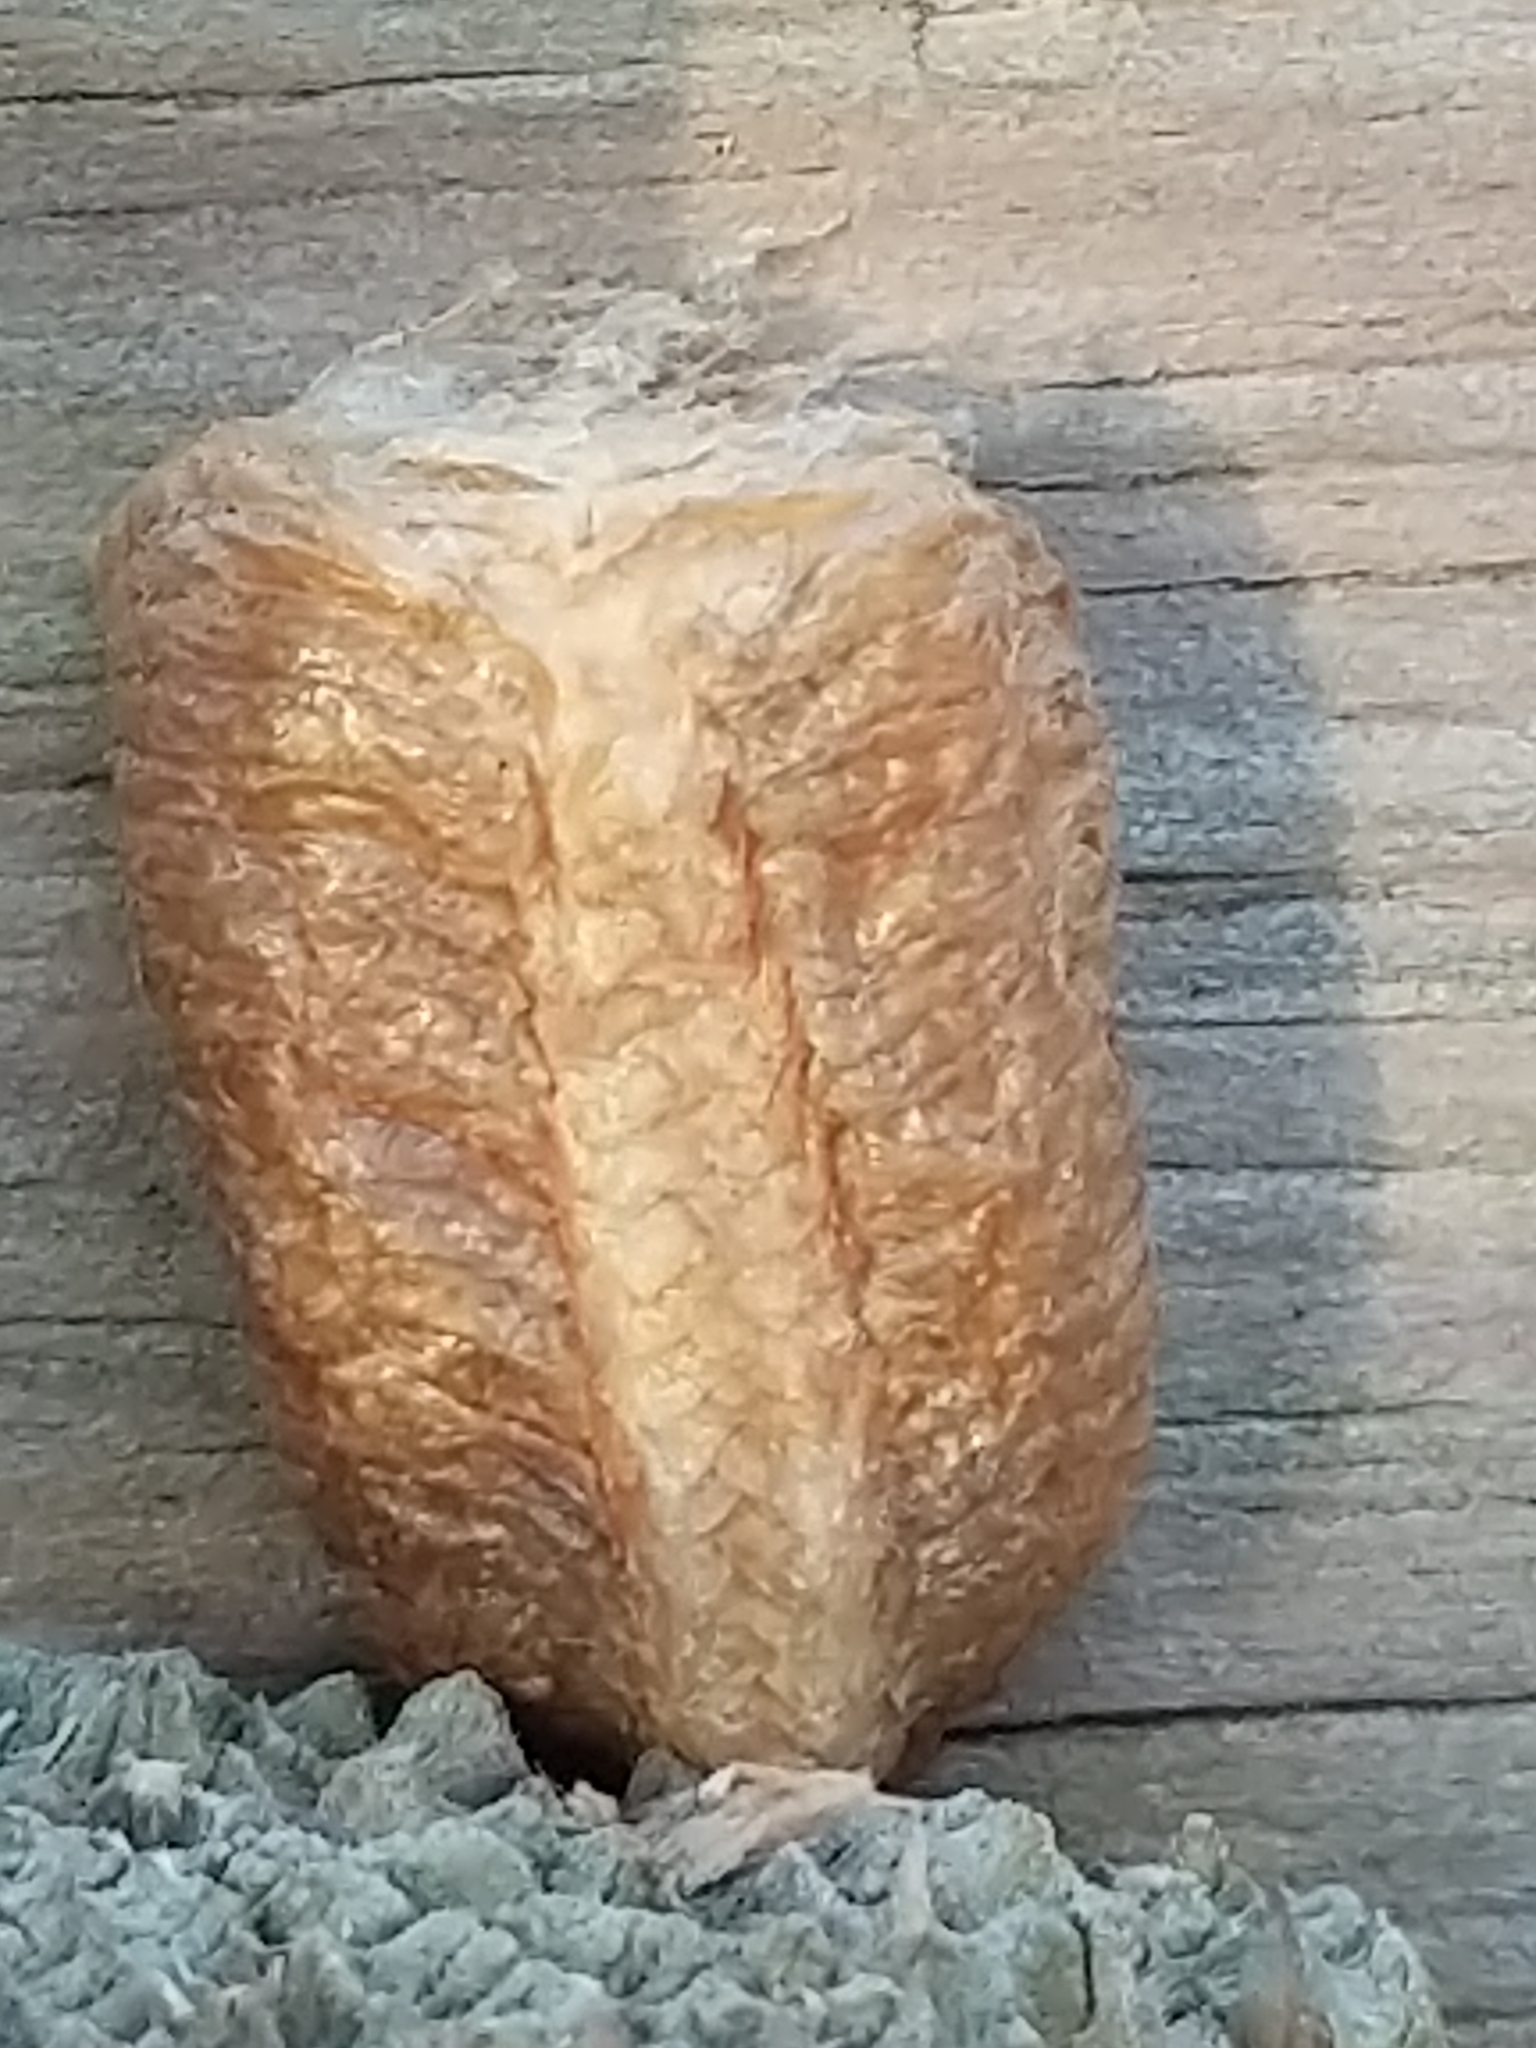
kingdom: Animalia
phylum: Arthropoda
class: Insecta
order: Mantodea
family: Mantidae
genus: Mantis
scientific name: Mantis religiosa
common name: Praying mantis
